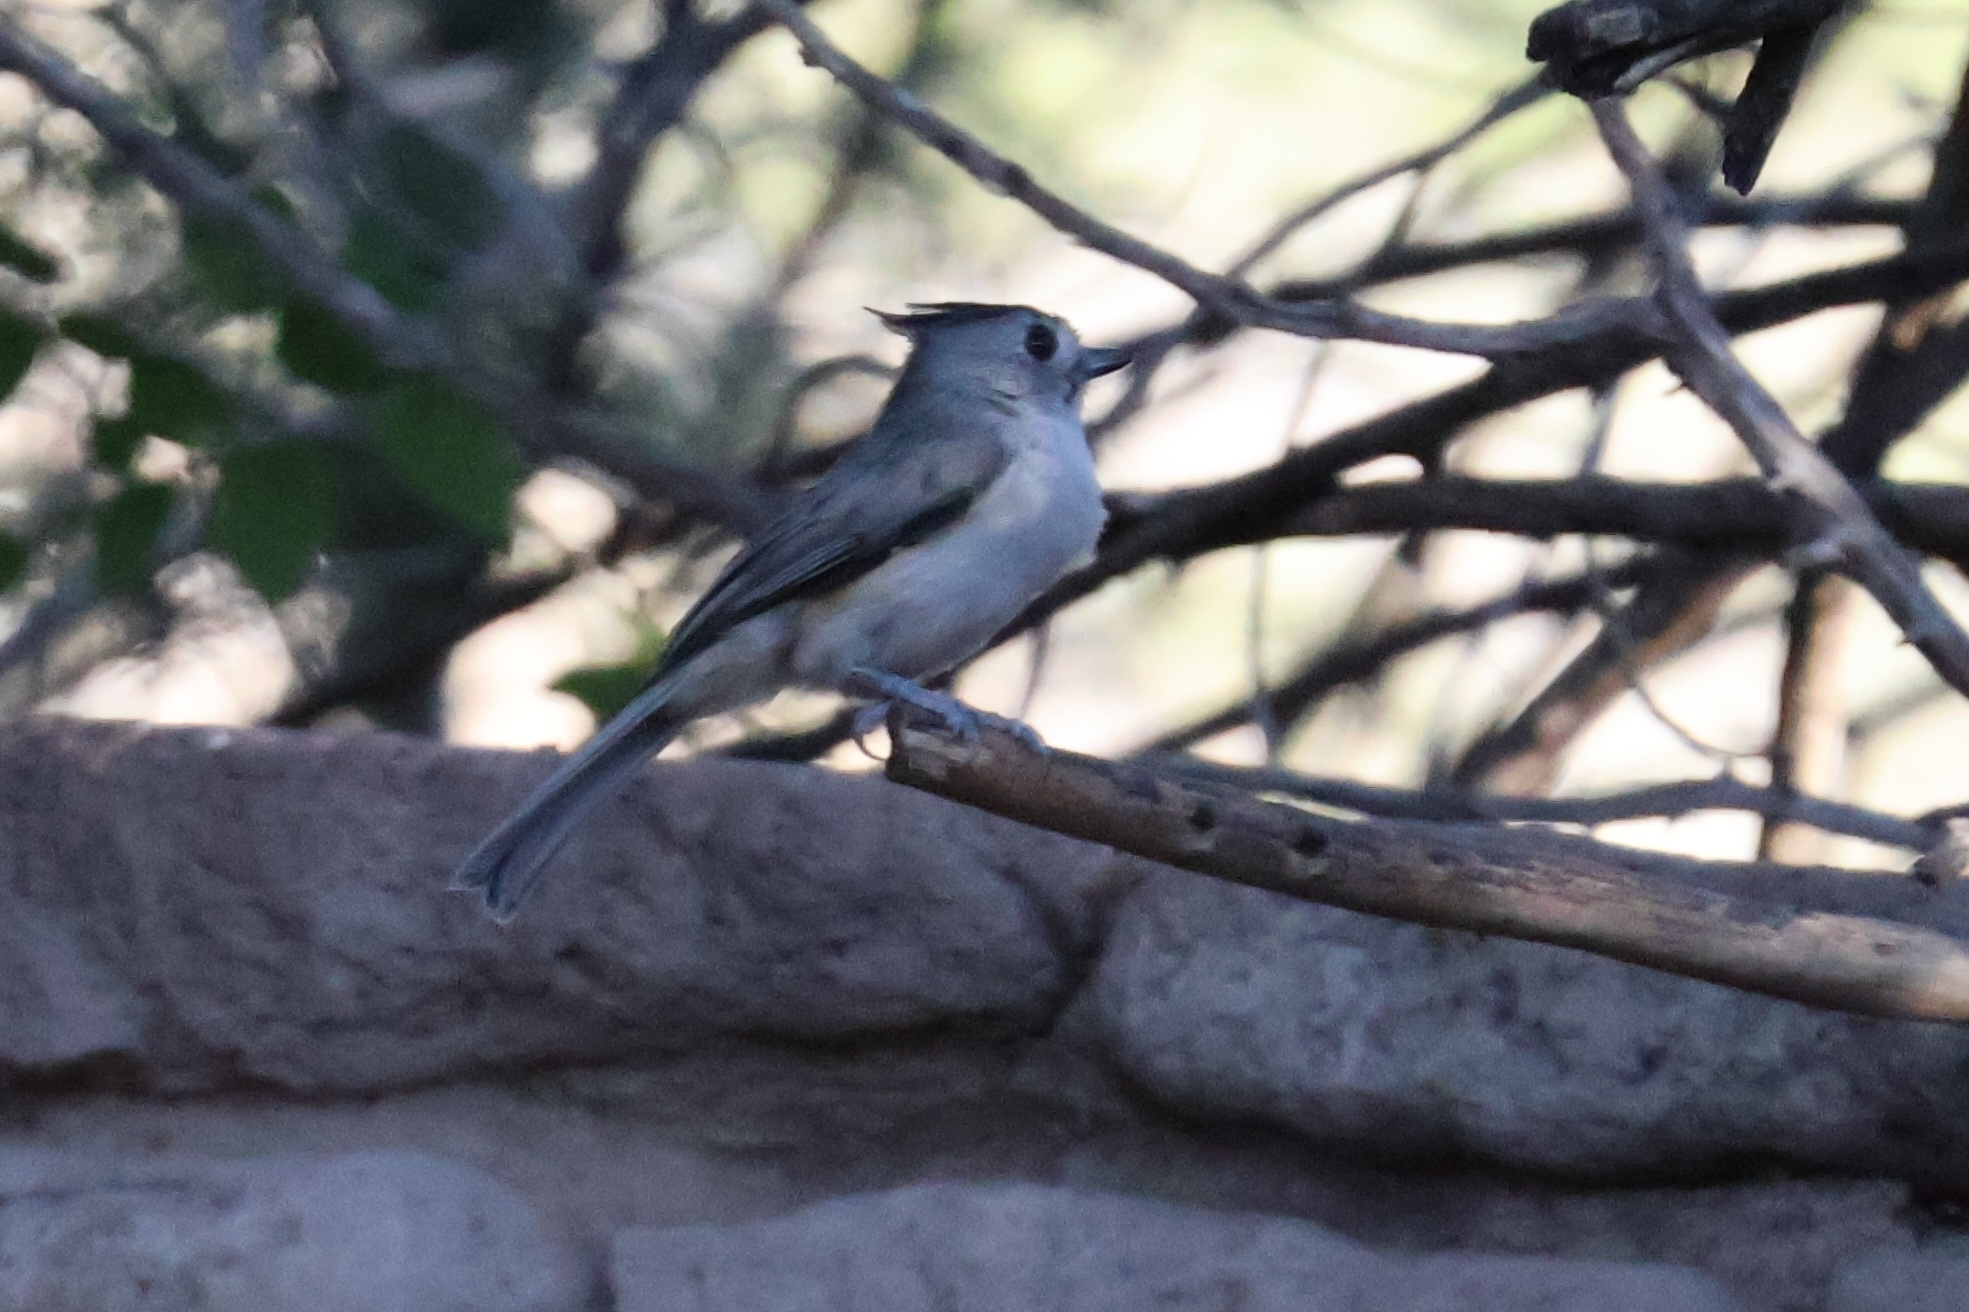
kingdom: Animalia
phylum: Chordata
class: Aves
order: Passeriformes
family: Paridae
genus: Baeolophus
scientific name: Baeolophus atricristatus
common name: Black-crested titmouse
